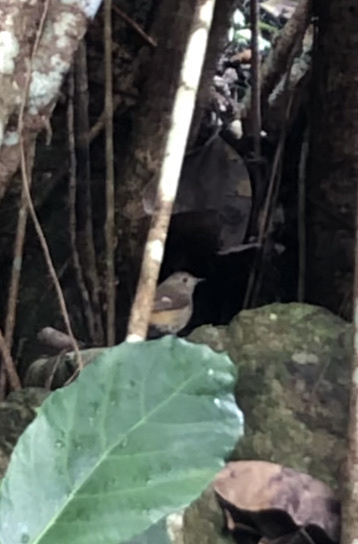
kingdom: Animalia
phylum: Chordata
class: Aves
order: Passeriformes
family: Muscicapidae
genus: Phoenicurus
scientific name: Phoenicurus auroreus
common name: Daurian redstart
